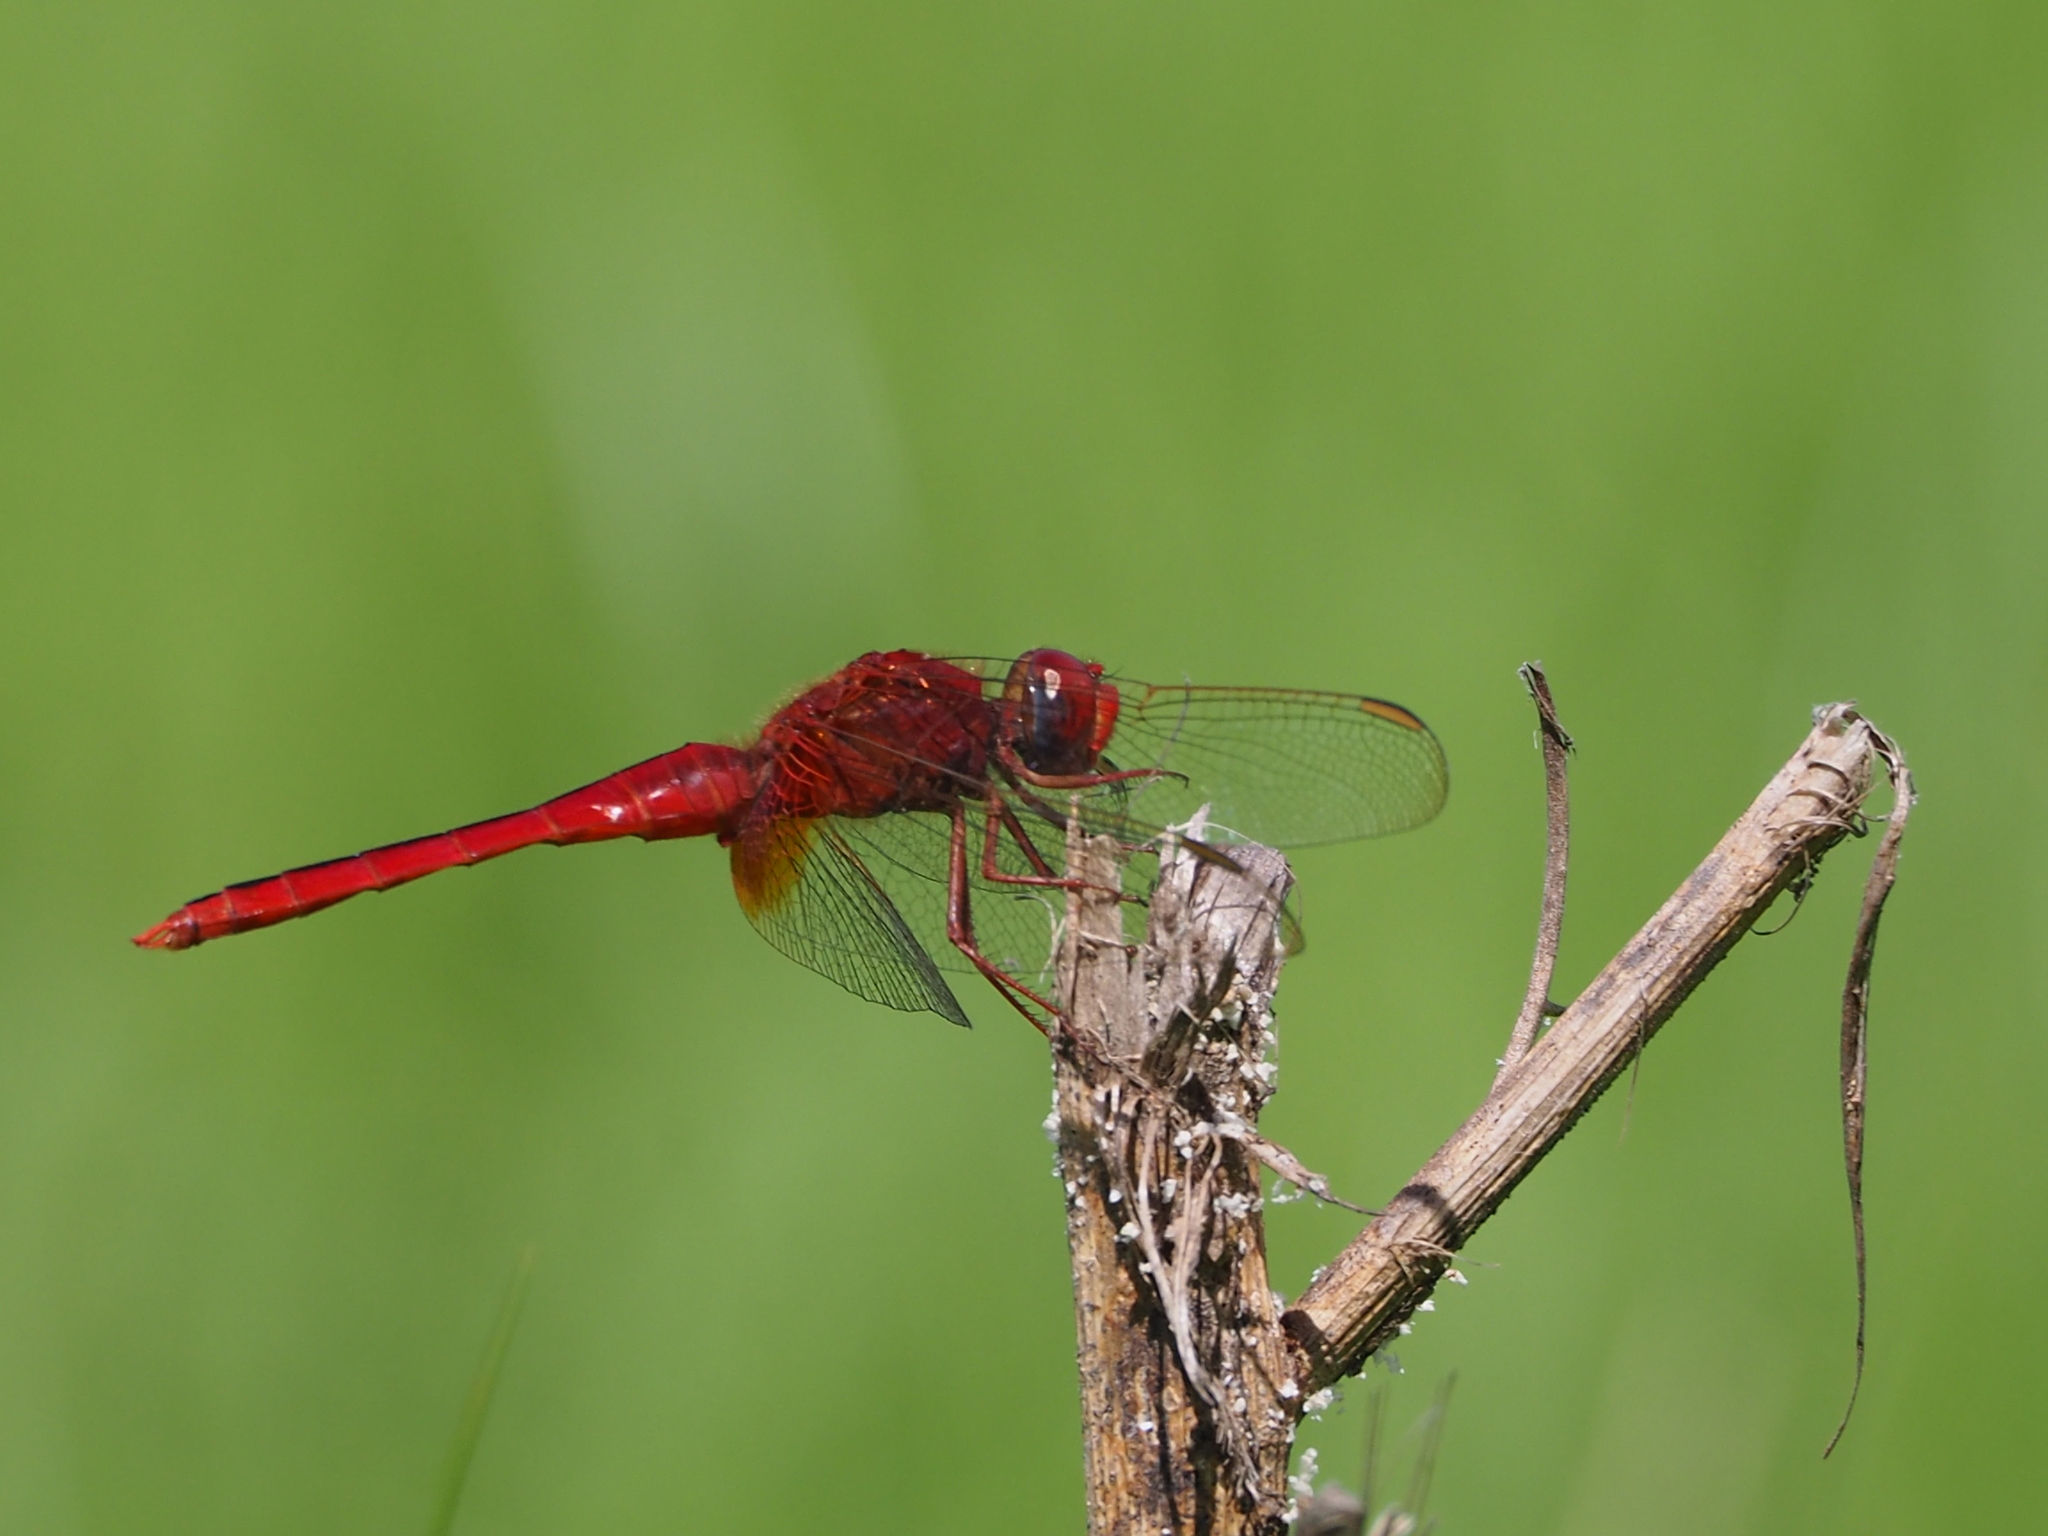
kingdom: Animalia
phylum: Arthropoda
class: Insecta
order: Odonata
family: Libellulidae
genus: Crocothemis
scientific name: Crocothemis servilia
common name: Scarlet skimmer
